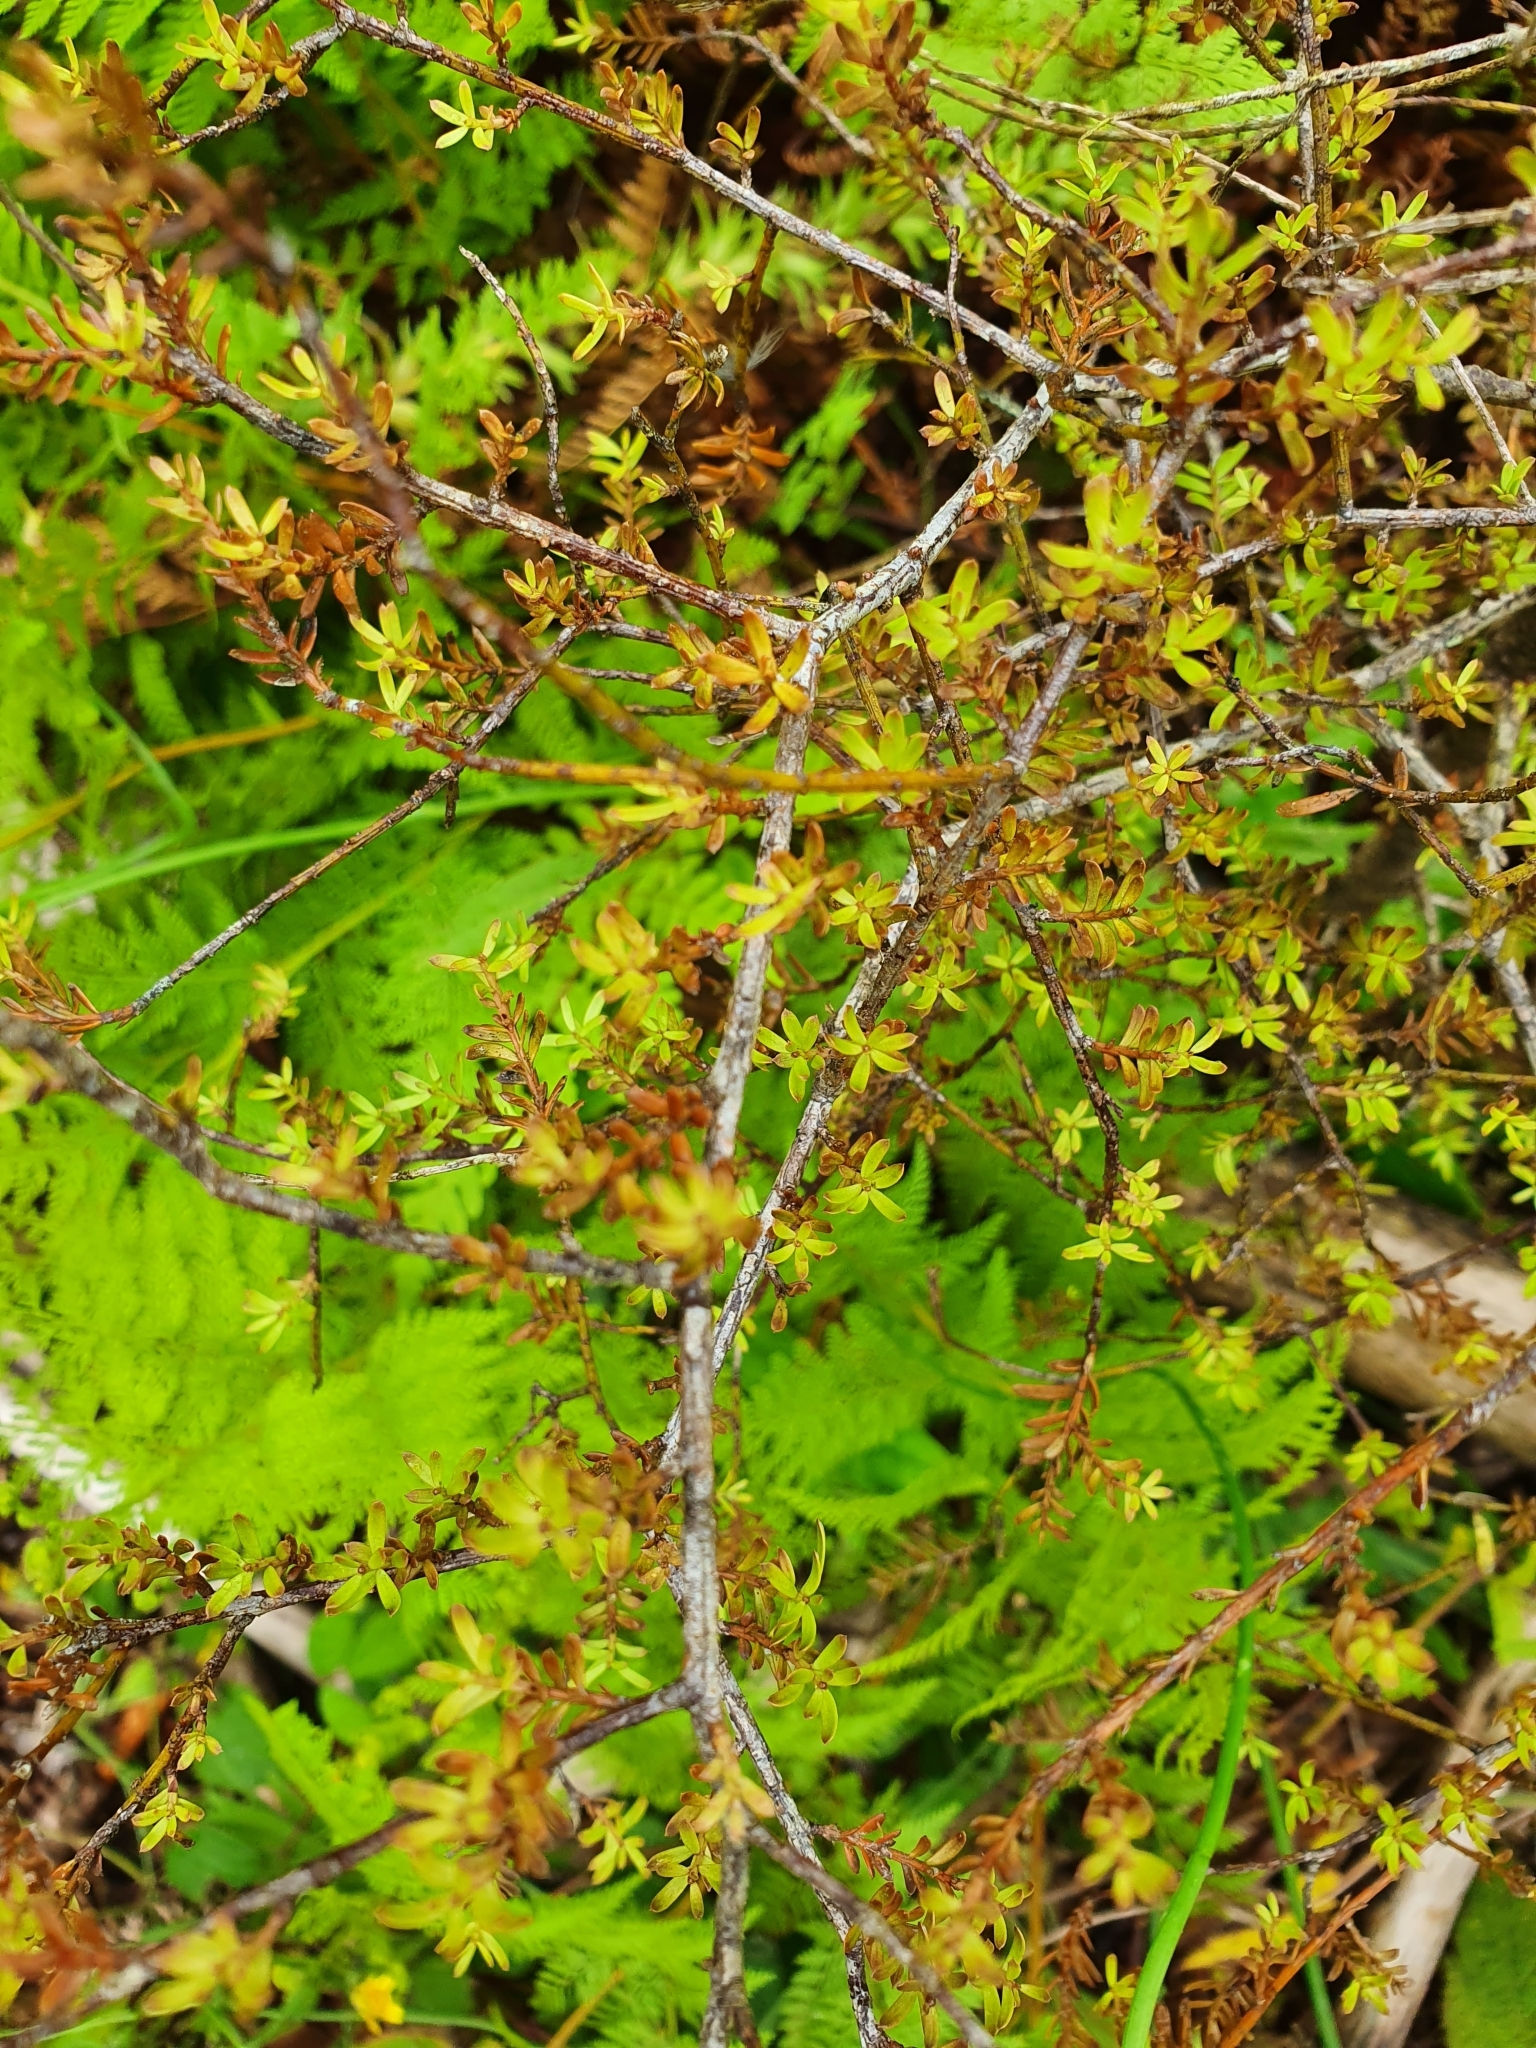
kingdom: Plantae
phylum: Tracheophyta
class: Pinopsida
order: Pinales
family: Podocarpaceae
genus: Prumnopitys
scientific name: Prumnopitys taxifolia
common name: Matai
